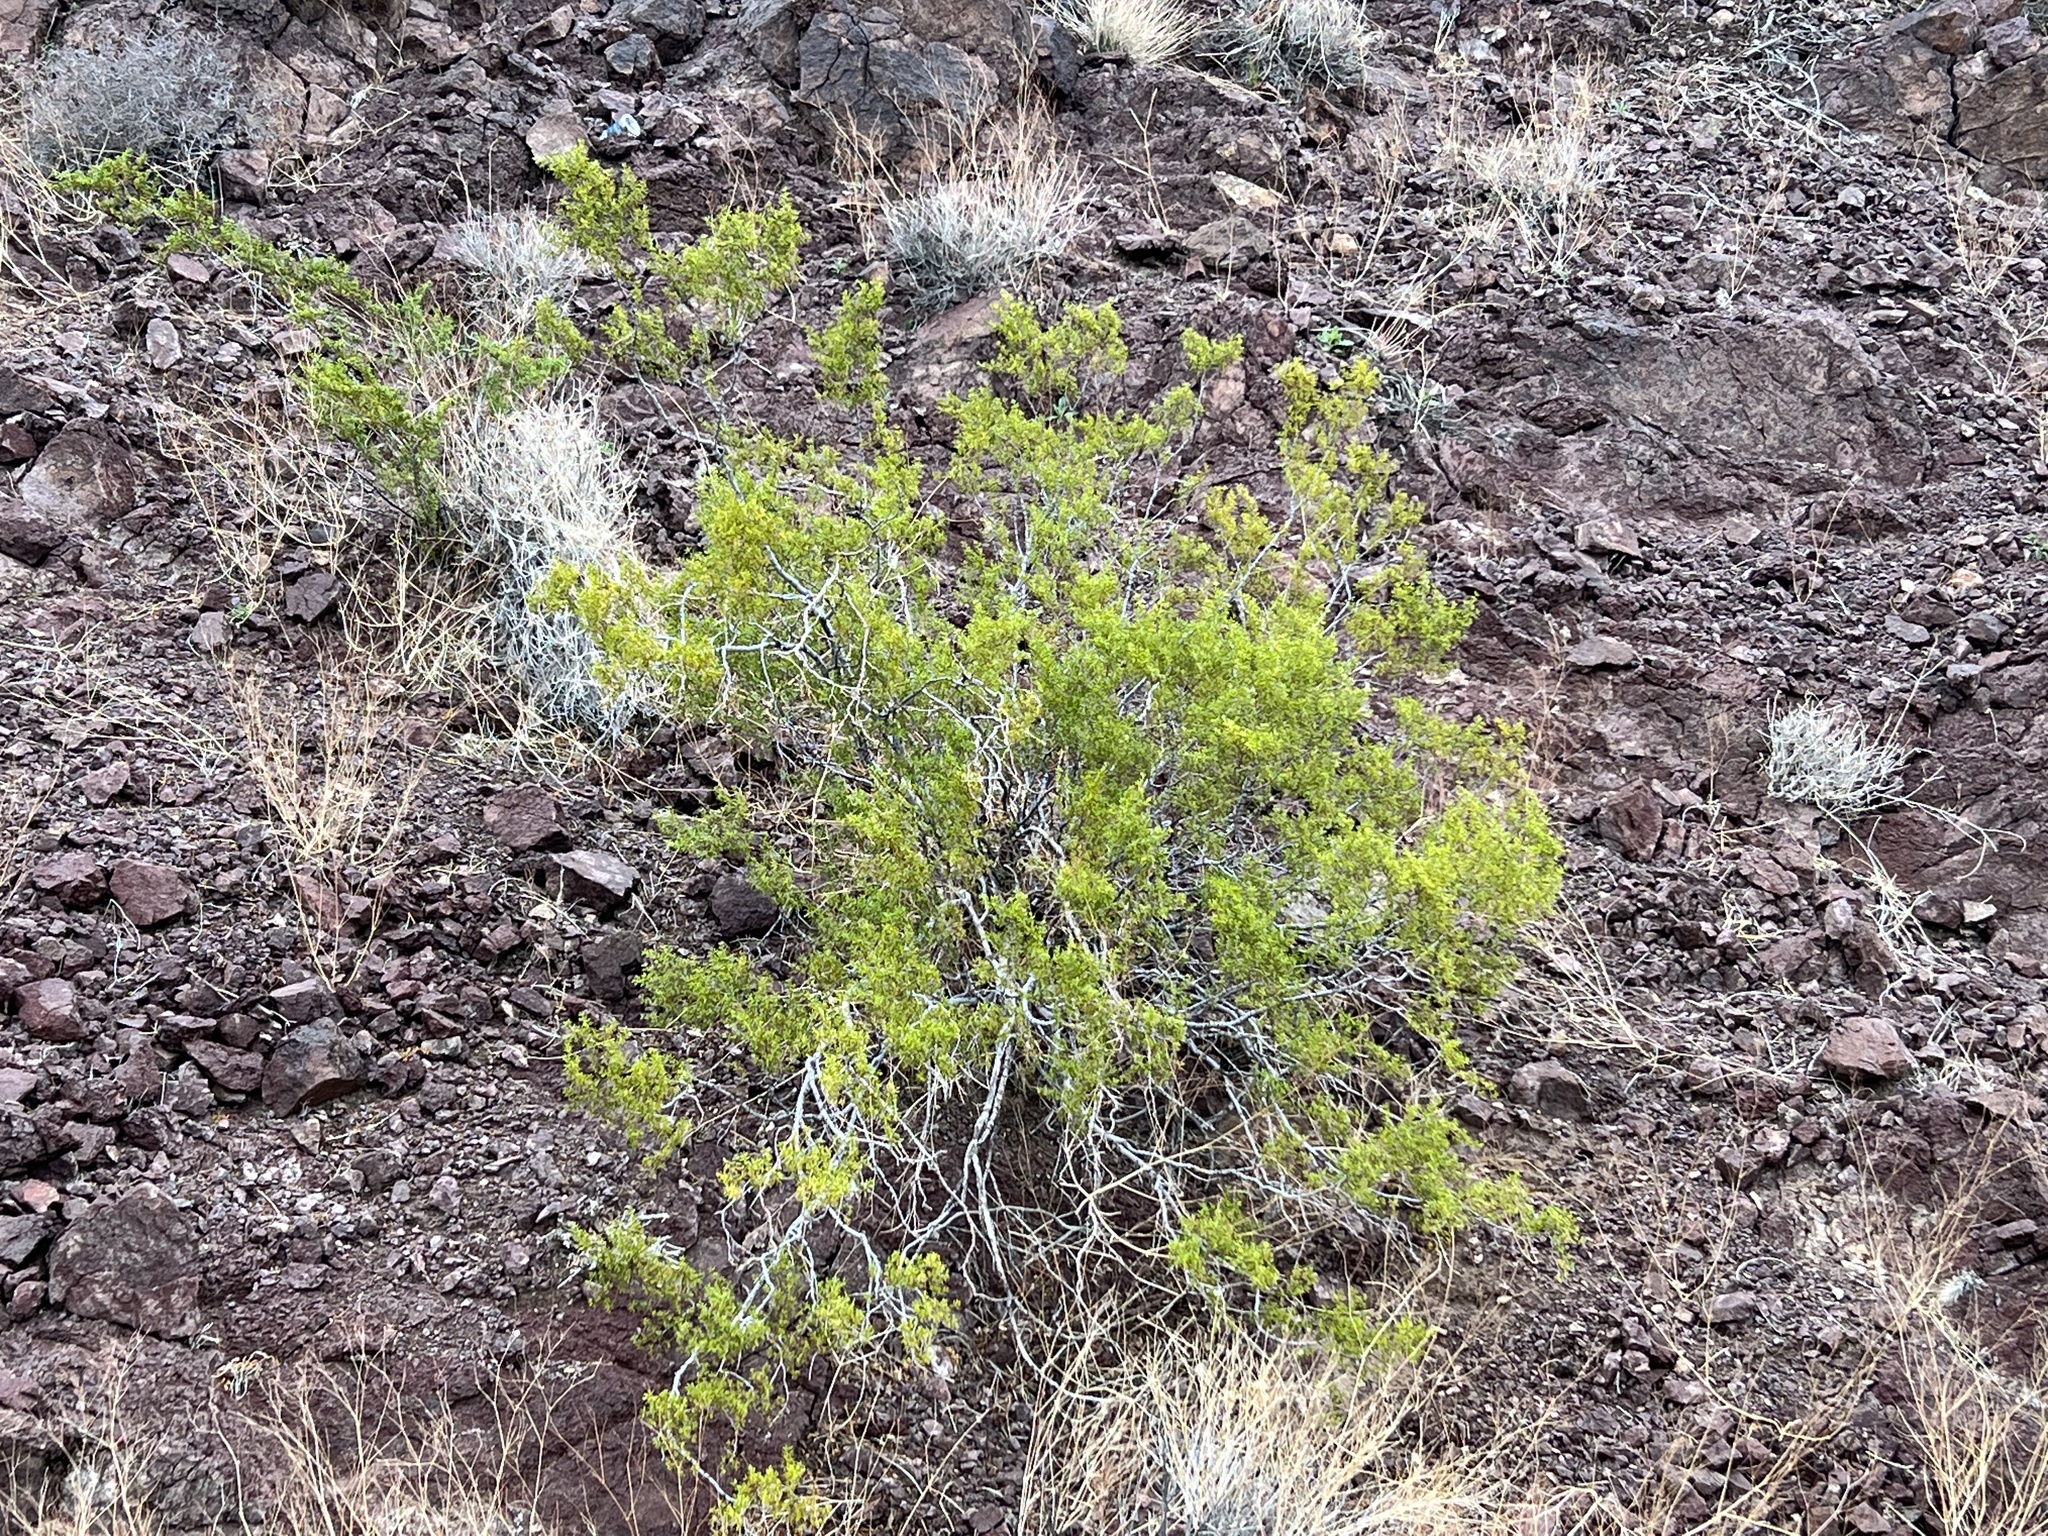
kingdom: Plantae
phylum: Tracheophyta
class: Magnoliopsida
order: Zygophyllales
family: Zygophyllaceae
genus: Larrea
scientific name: Larrea tridentata
